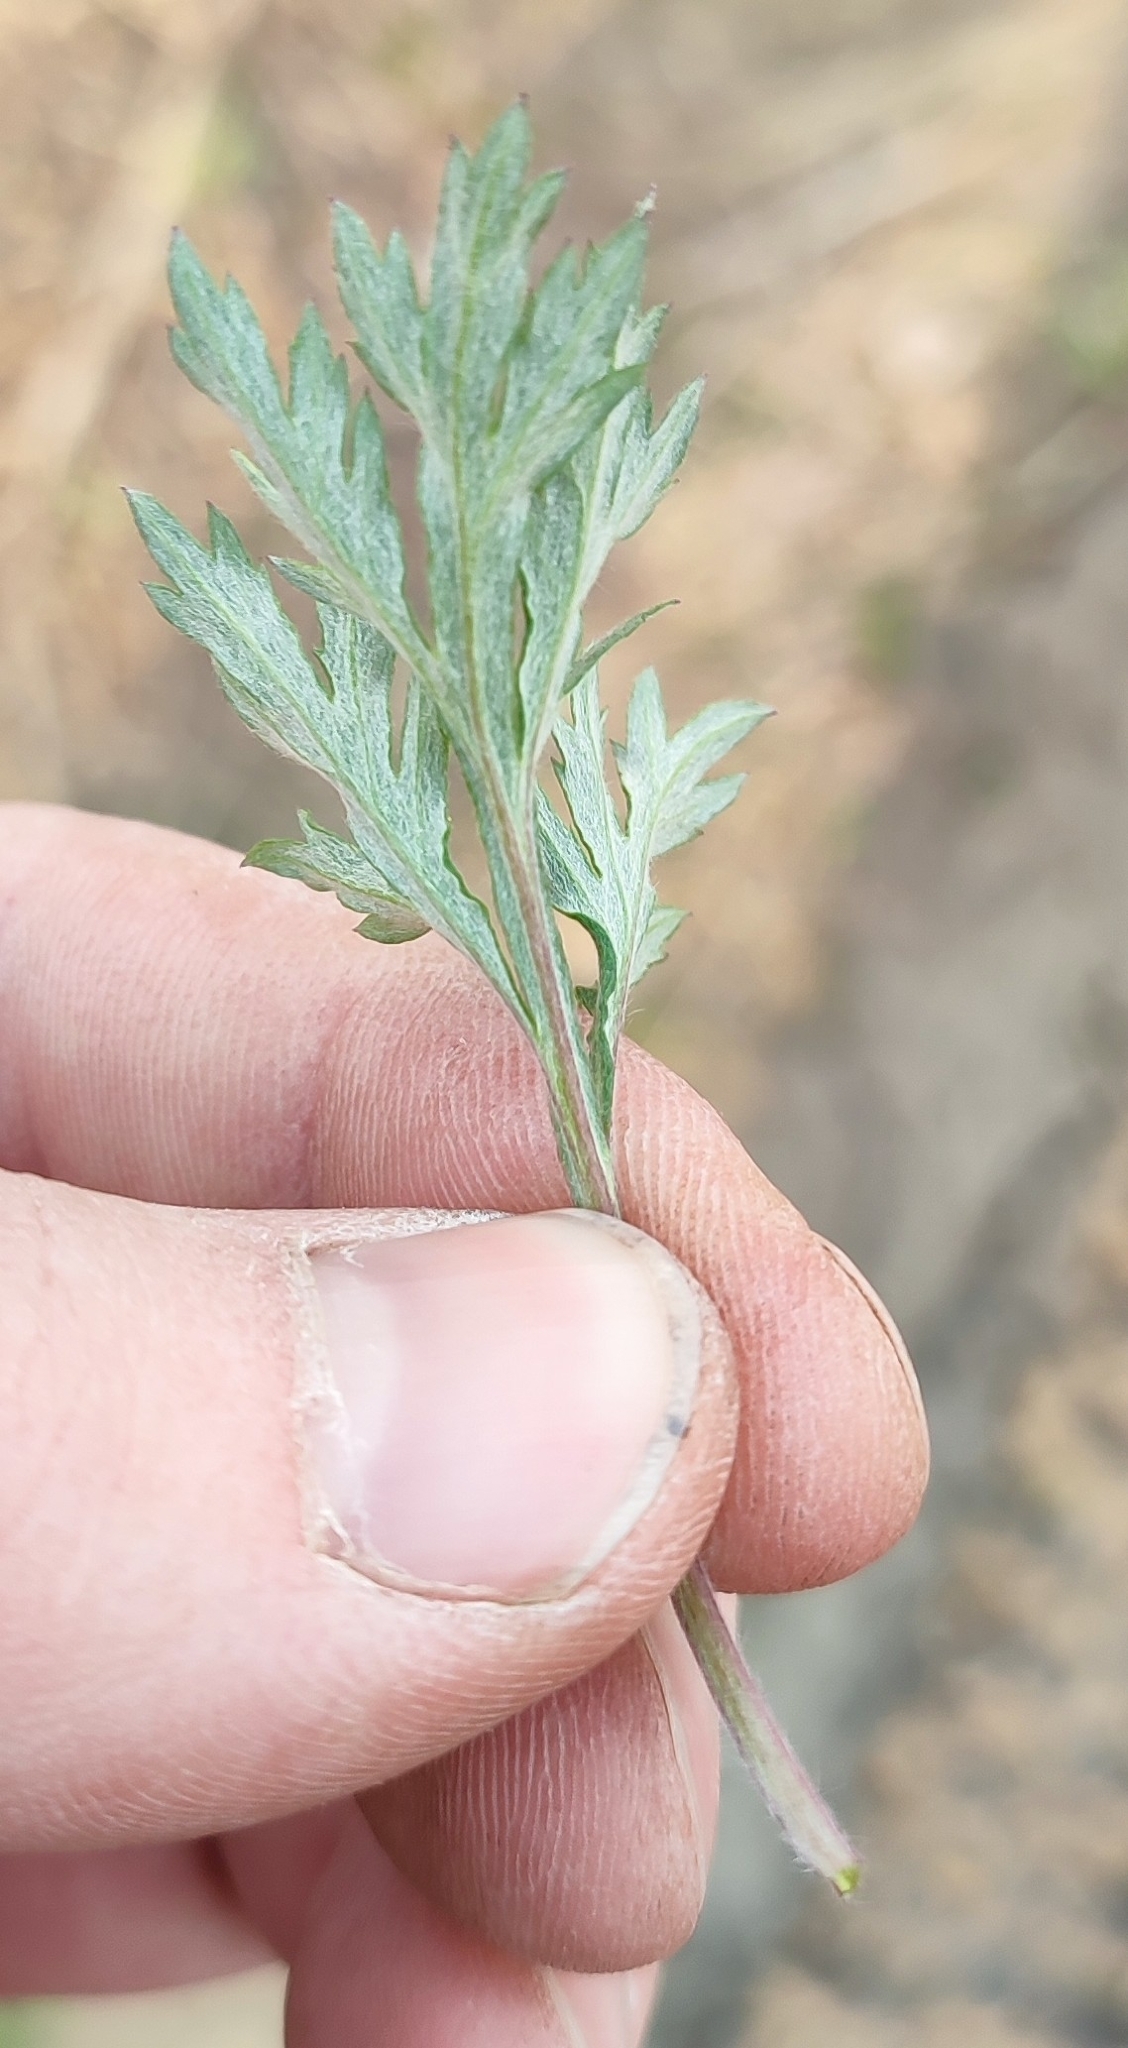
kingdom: Plantae
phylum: Tracheophyta
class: Magnoliopsida
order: Asterales
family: Asteraceae
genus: Artemisia
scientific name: Artemisia vulgaris
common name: Mugwort
